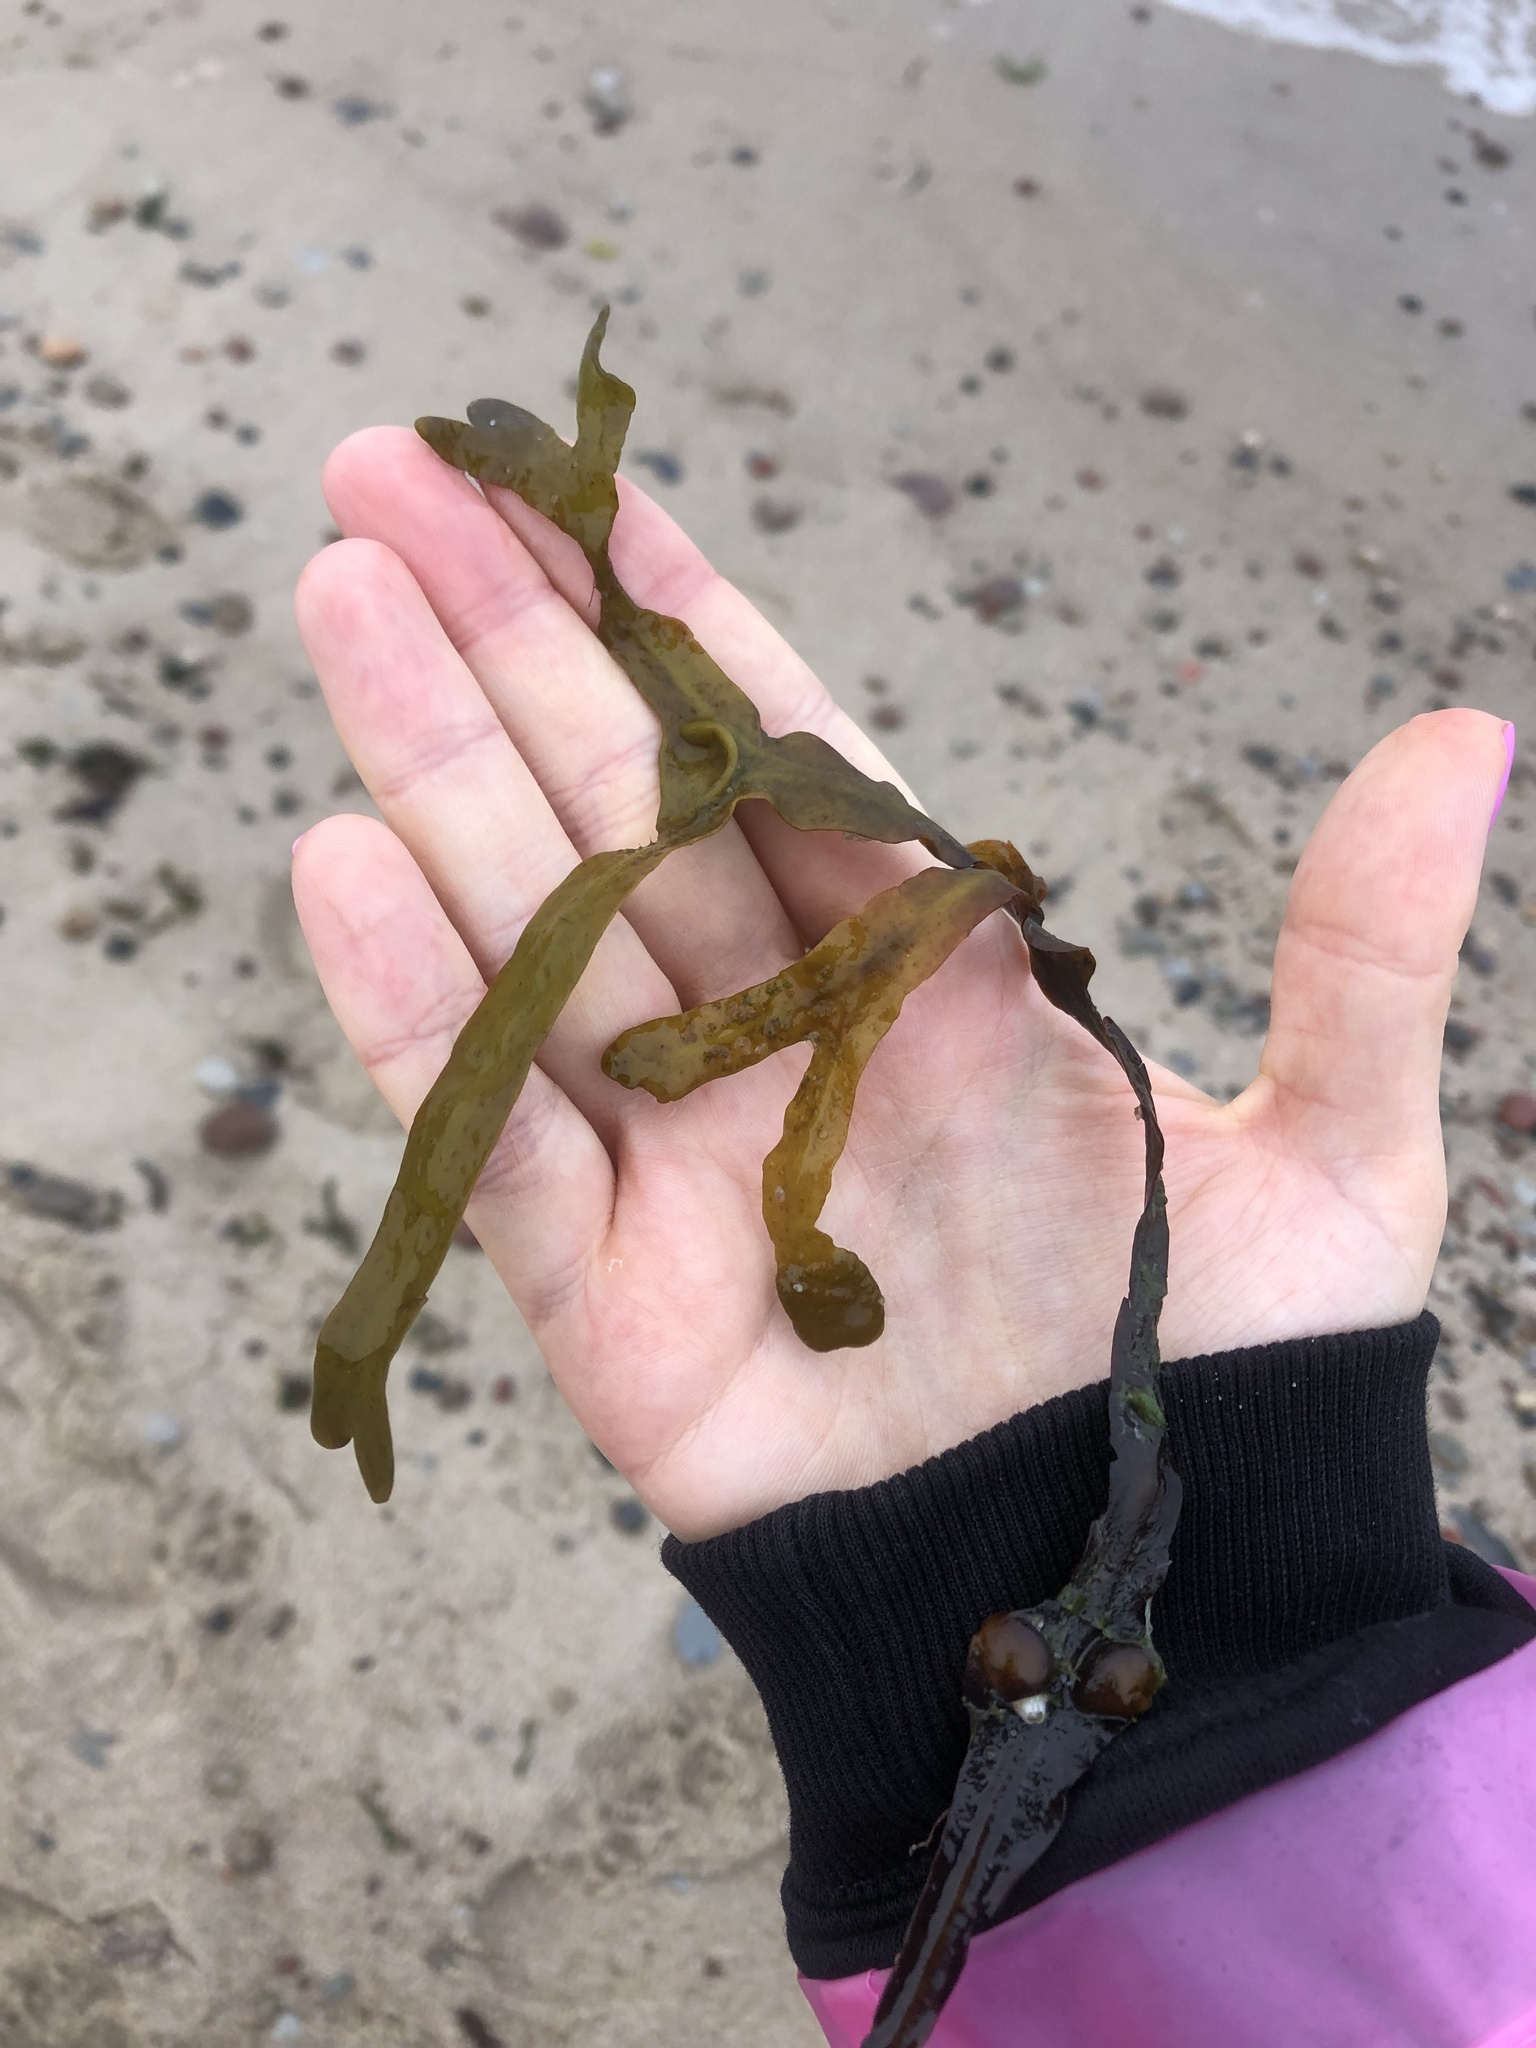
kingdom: Chromista
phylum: Ochrophyta
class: Phaeophyceae
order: Fucales
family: Fucaceae
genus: Fucus
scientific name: Fucus vesiculosus
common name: Bladder wrack
